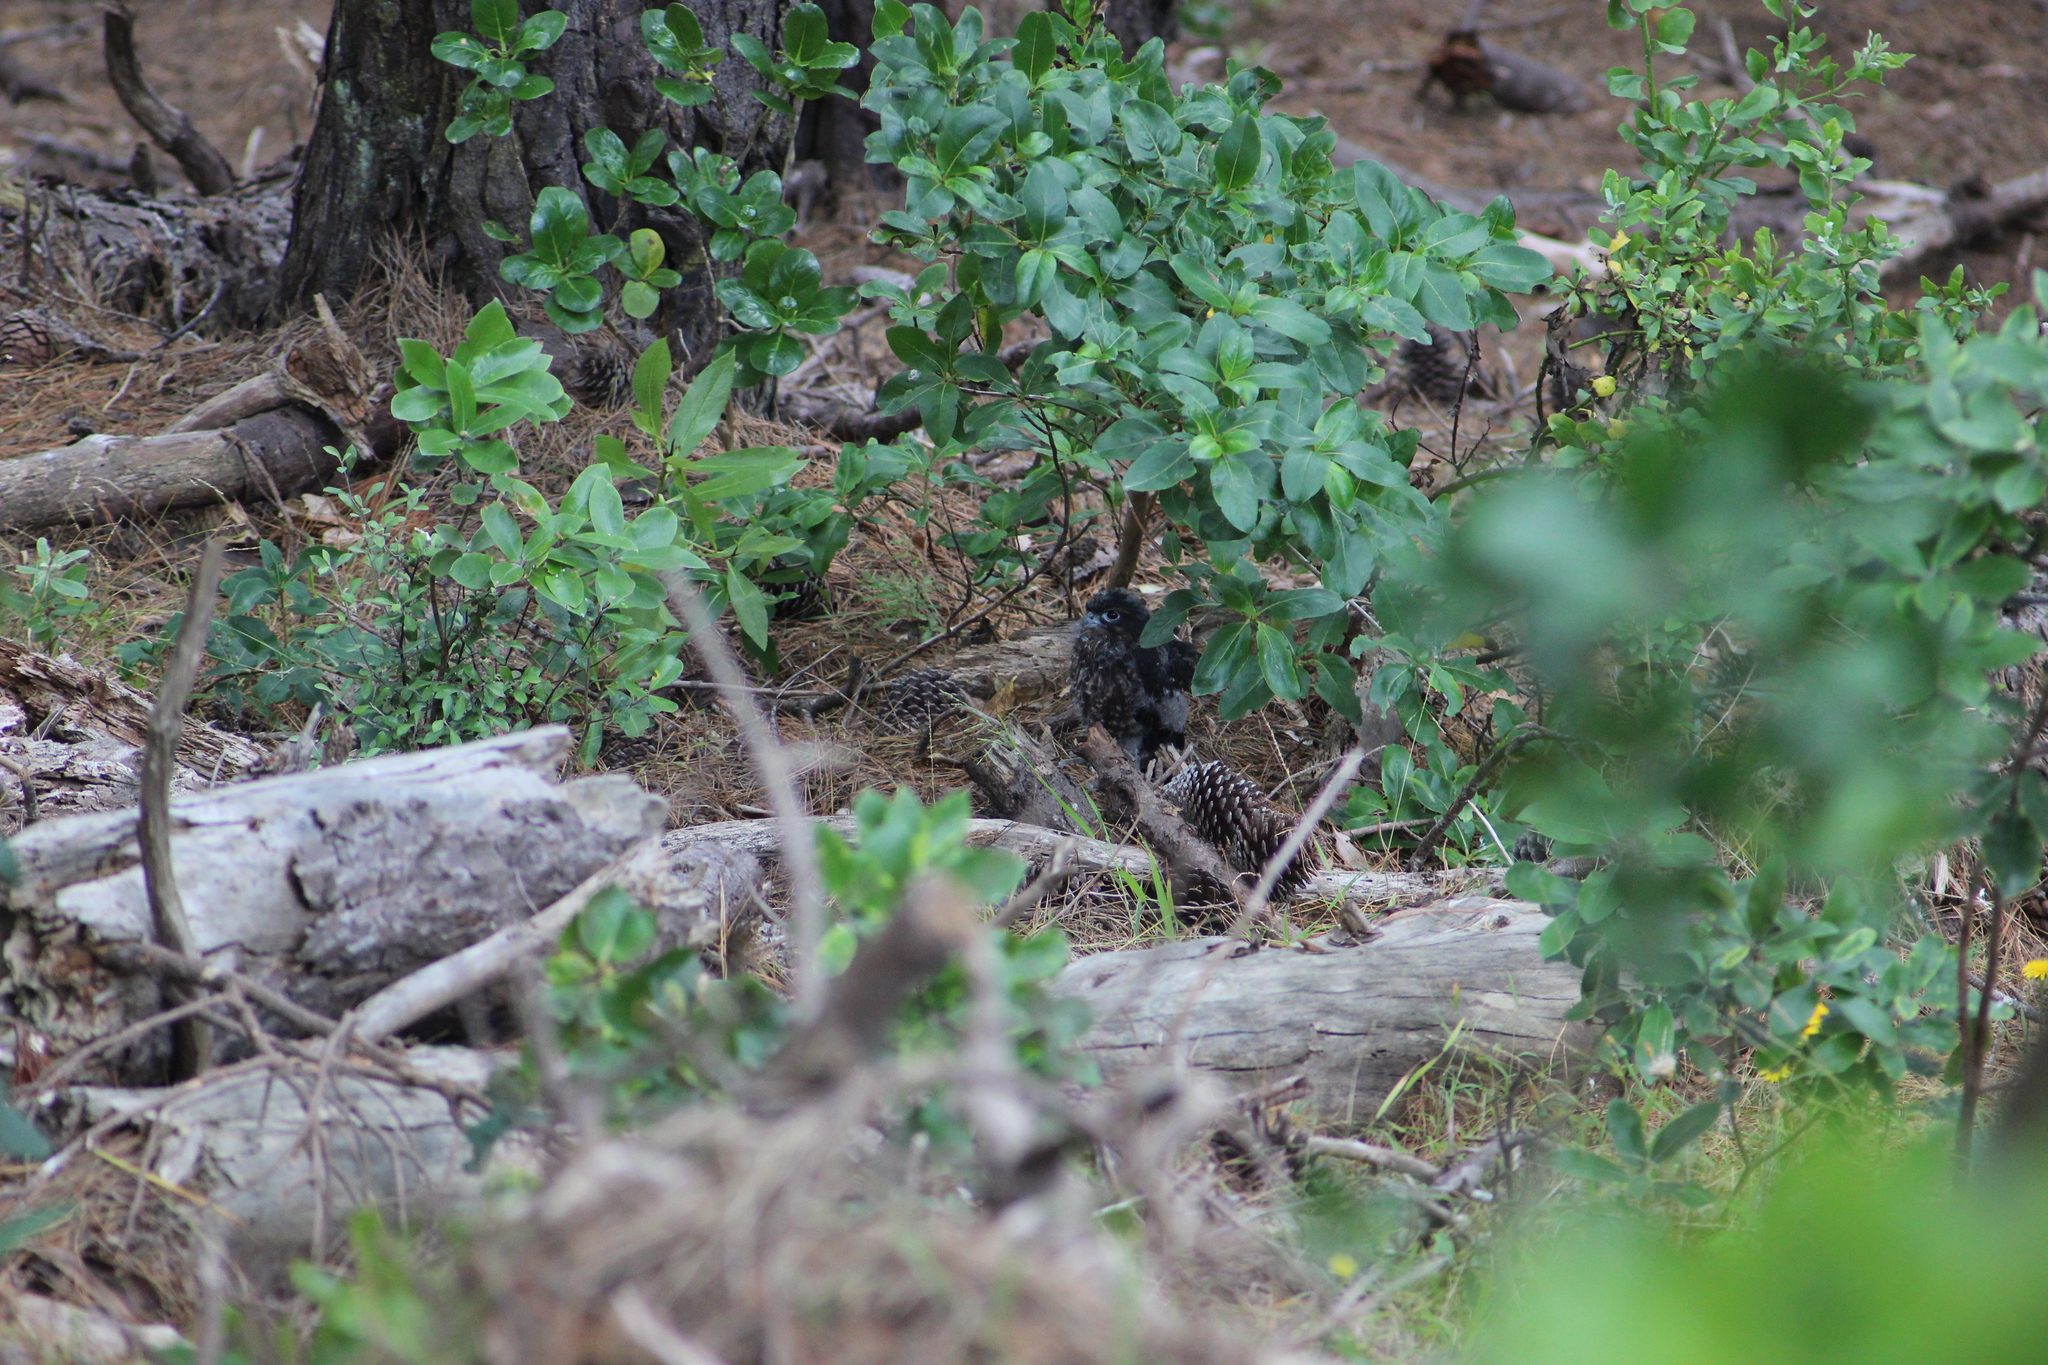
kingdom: Animalia
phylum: Chordata
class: Aves
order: Falconiformes
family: Falconidae
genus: Falco
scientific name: Falco novaeseelandiae
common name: New zealand falcon
